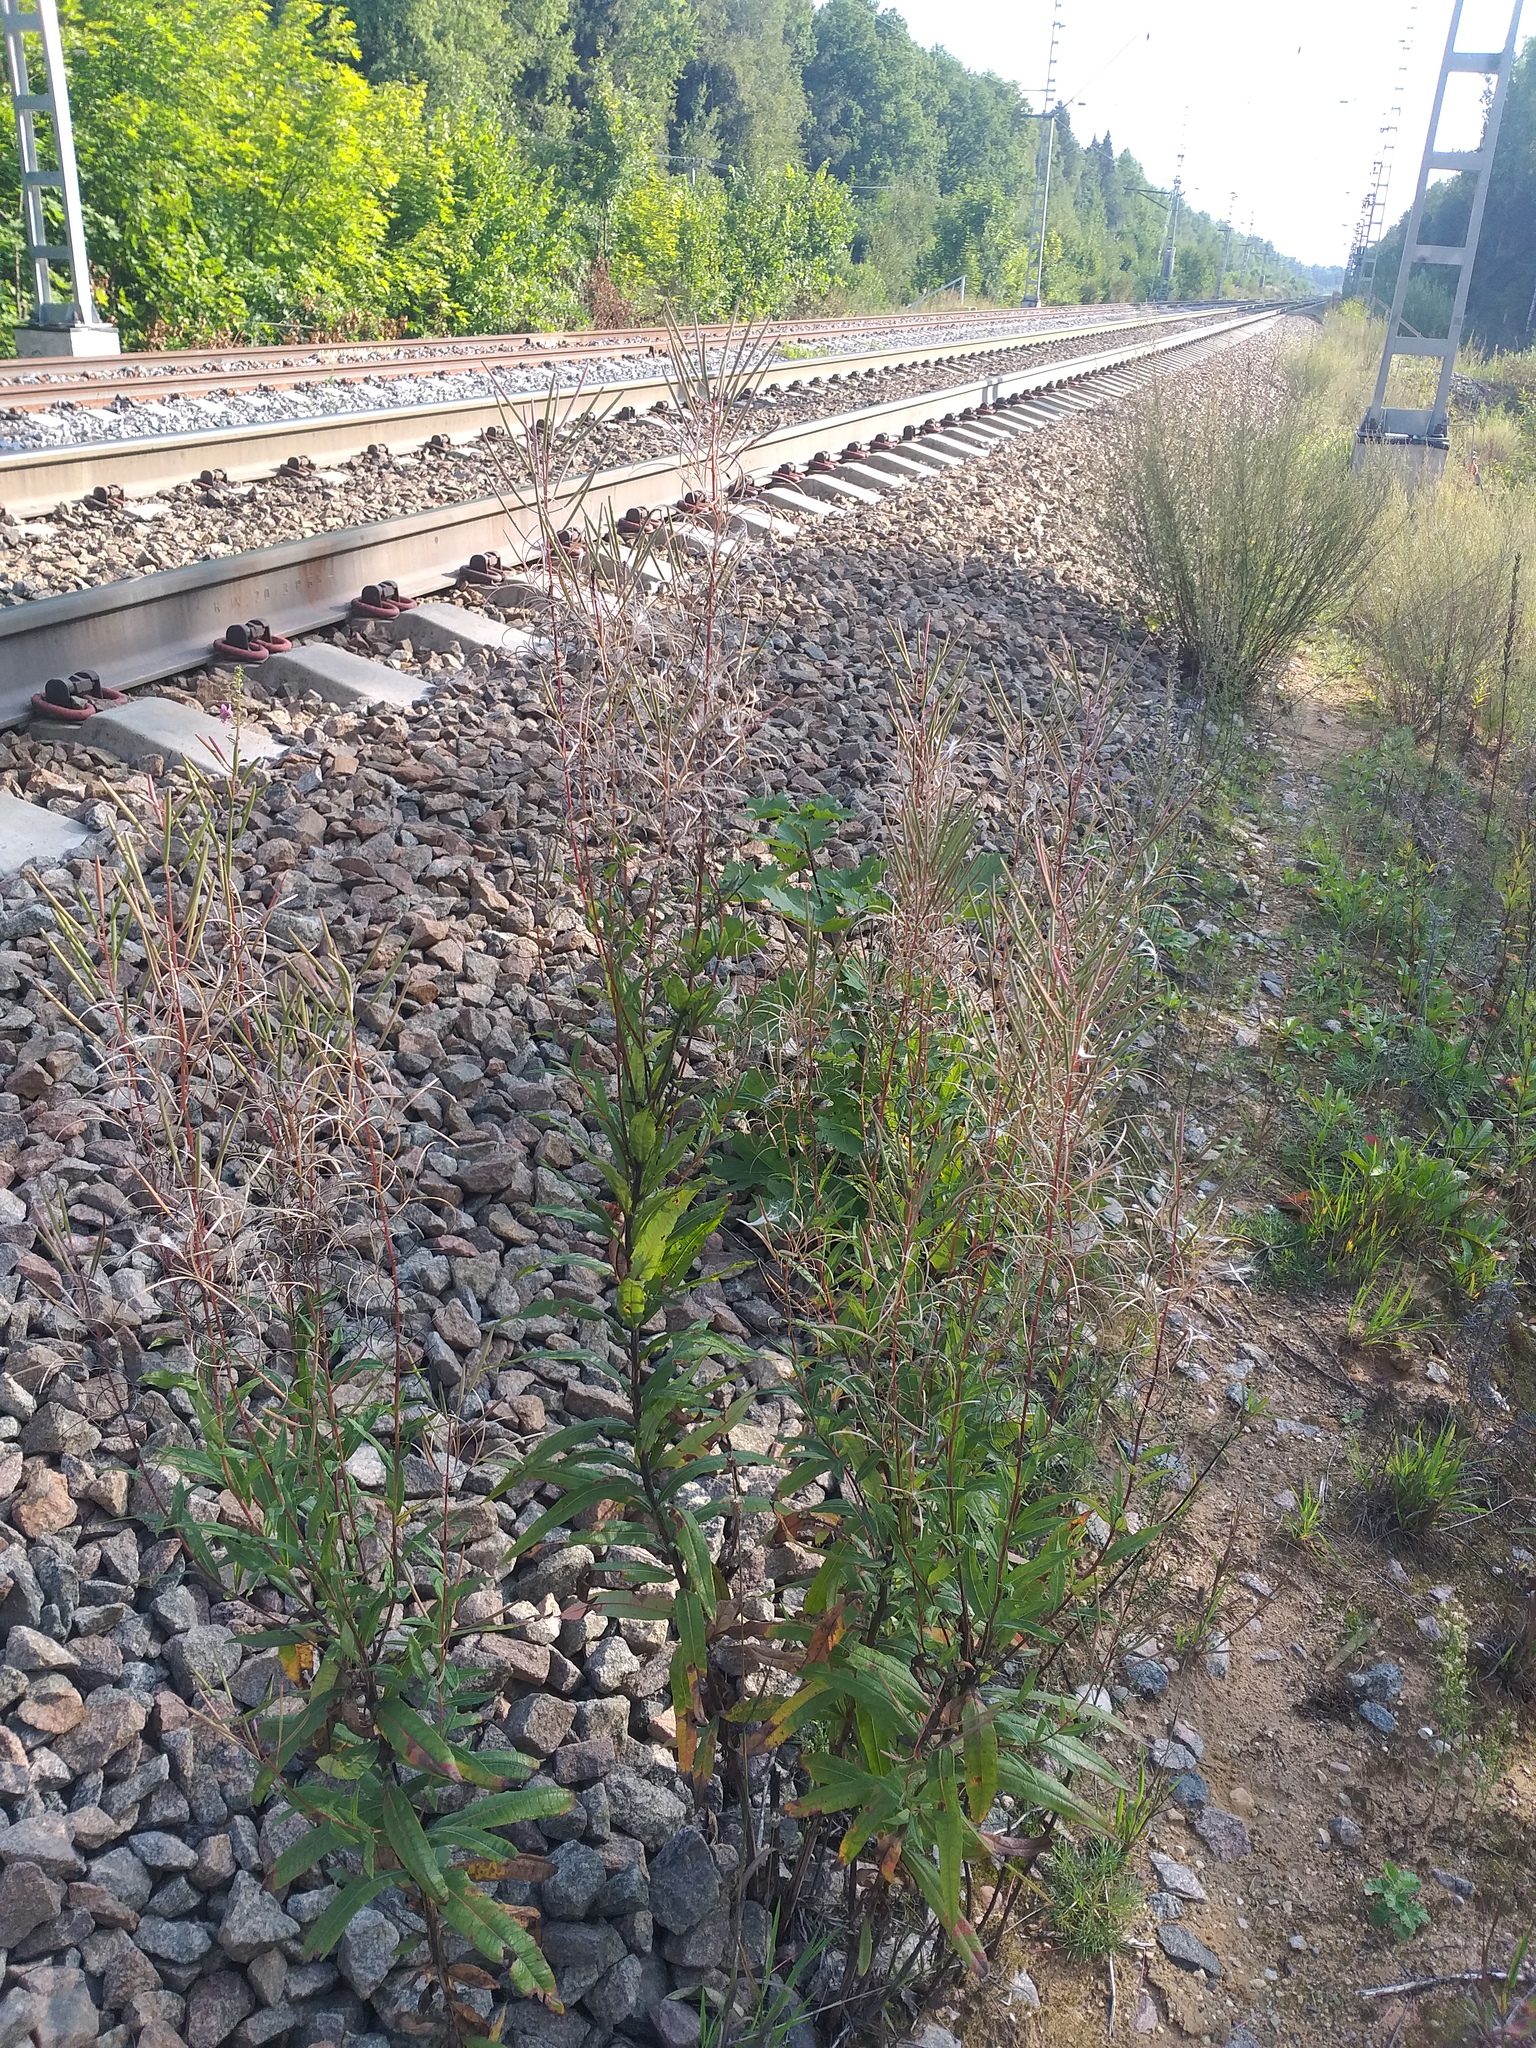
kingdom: Plantae
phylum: Tracheophyta
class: Magnoliopsida
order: Myrtales
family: Onagraceae
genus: Chamaenerion
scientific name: Chamaenerion angustifolium
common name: Fireweed
